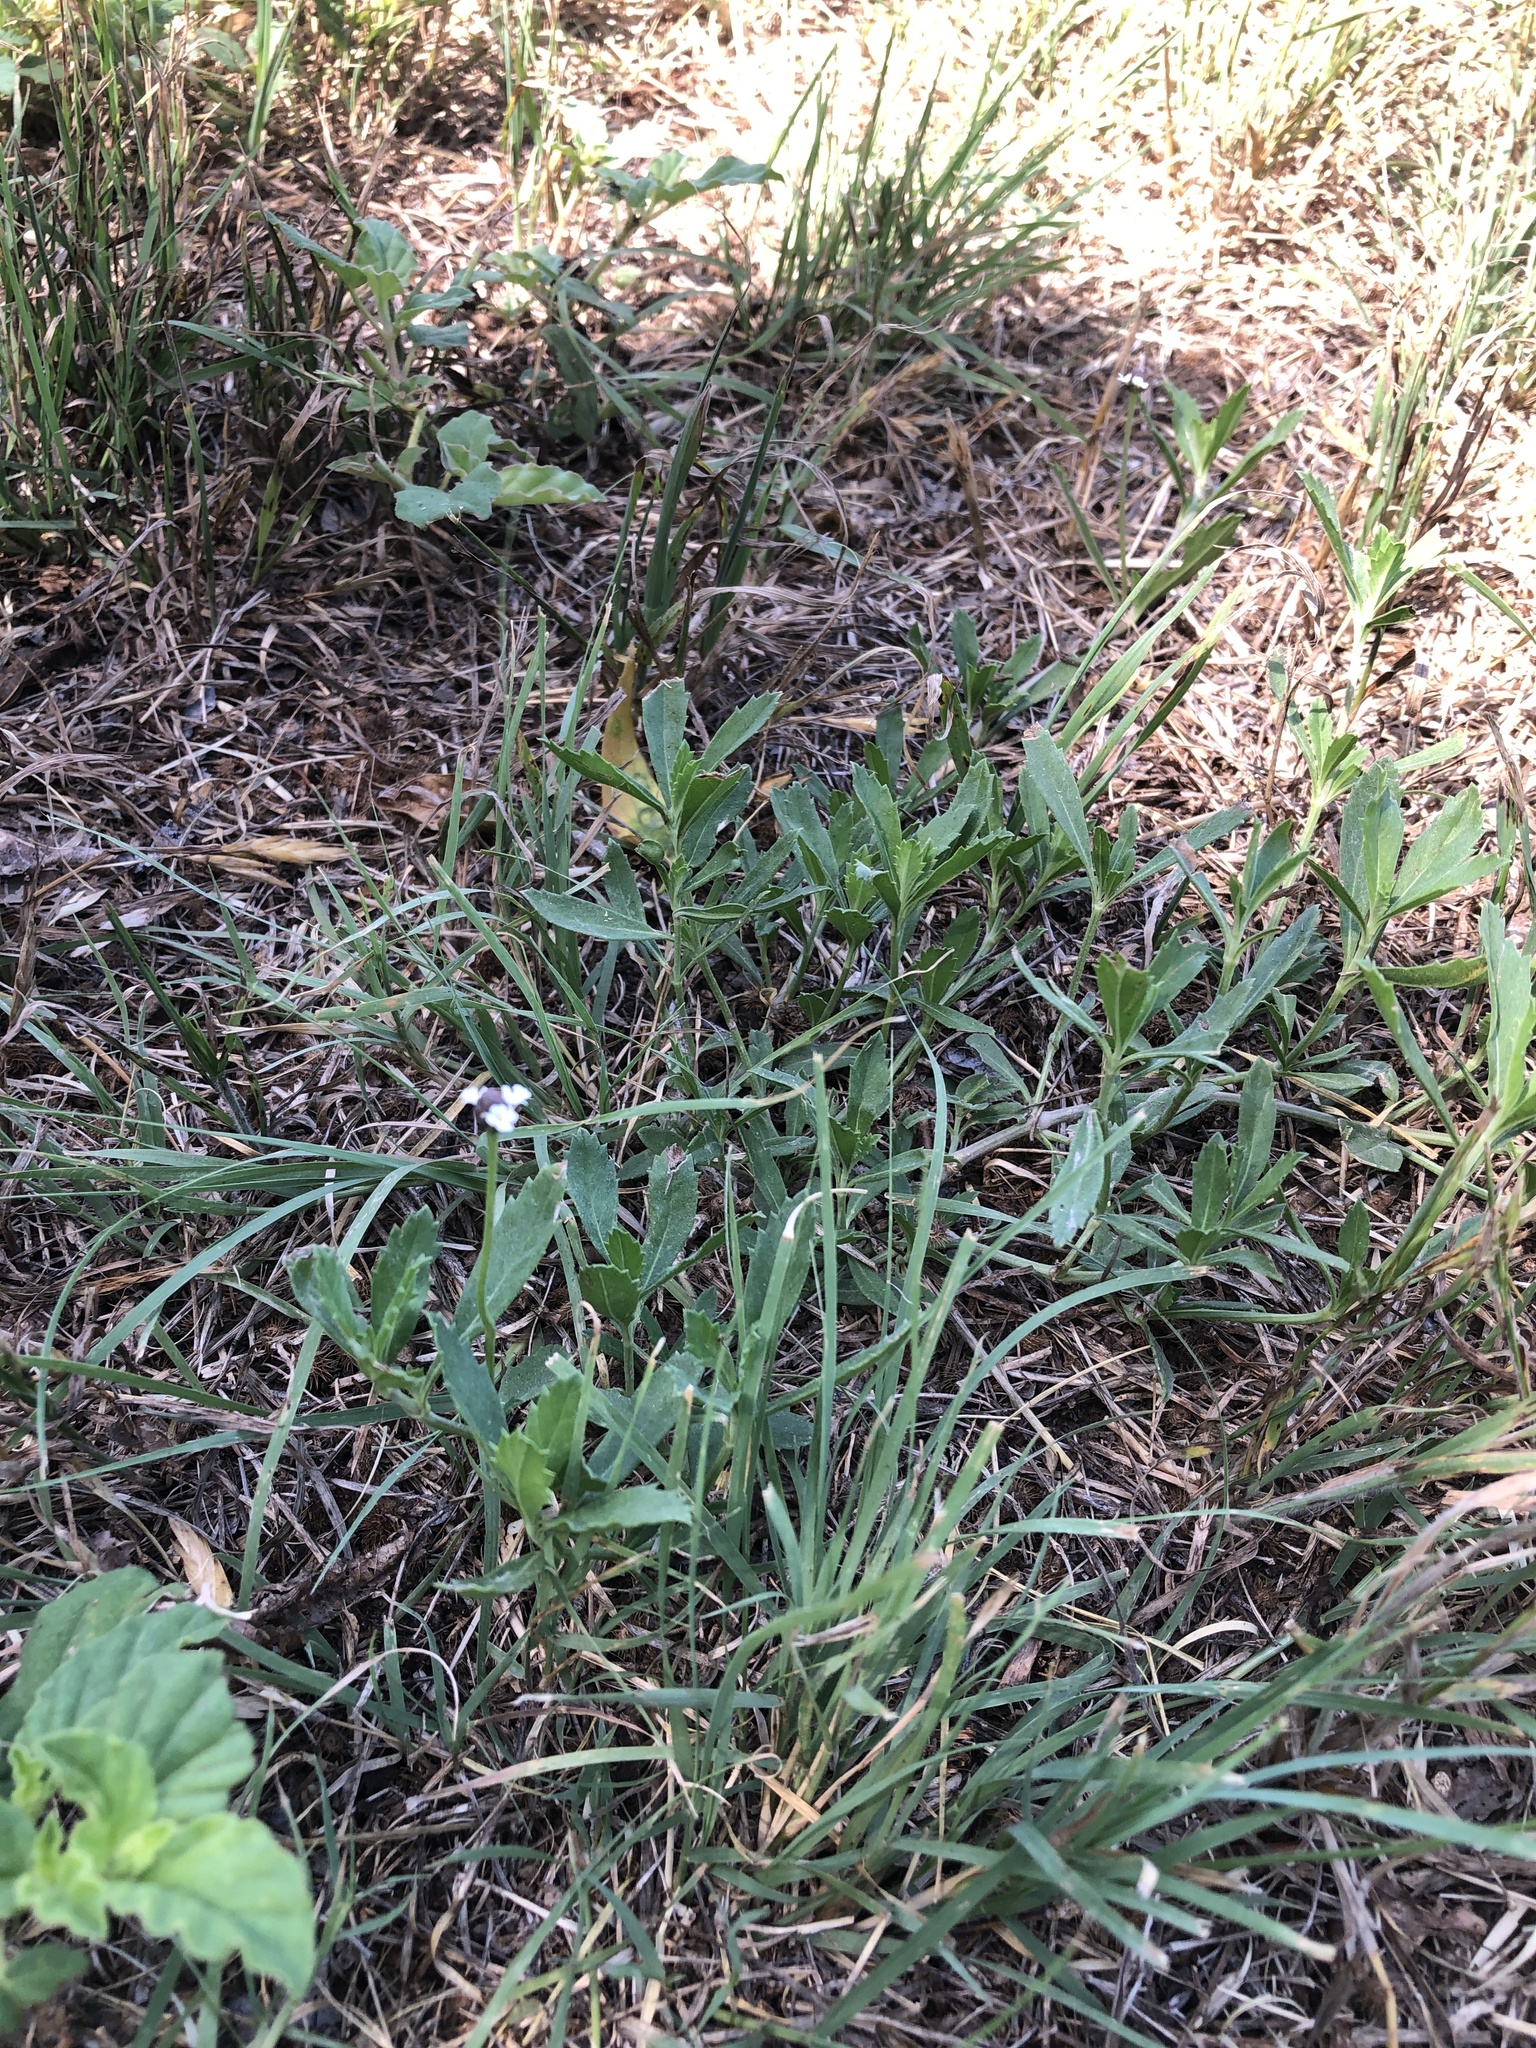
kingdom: Plantae
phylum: Tracheophyta
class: Magnoliopsida
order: Lamiales
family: Verbenaceae
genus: Phyla
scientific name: Phyla nodiflora
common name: Frogfruit
